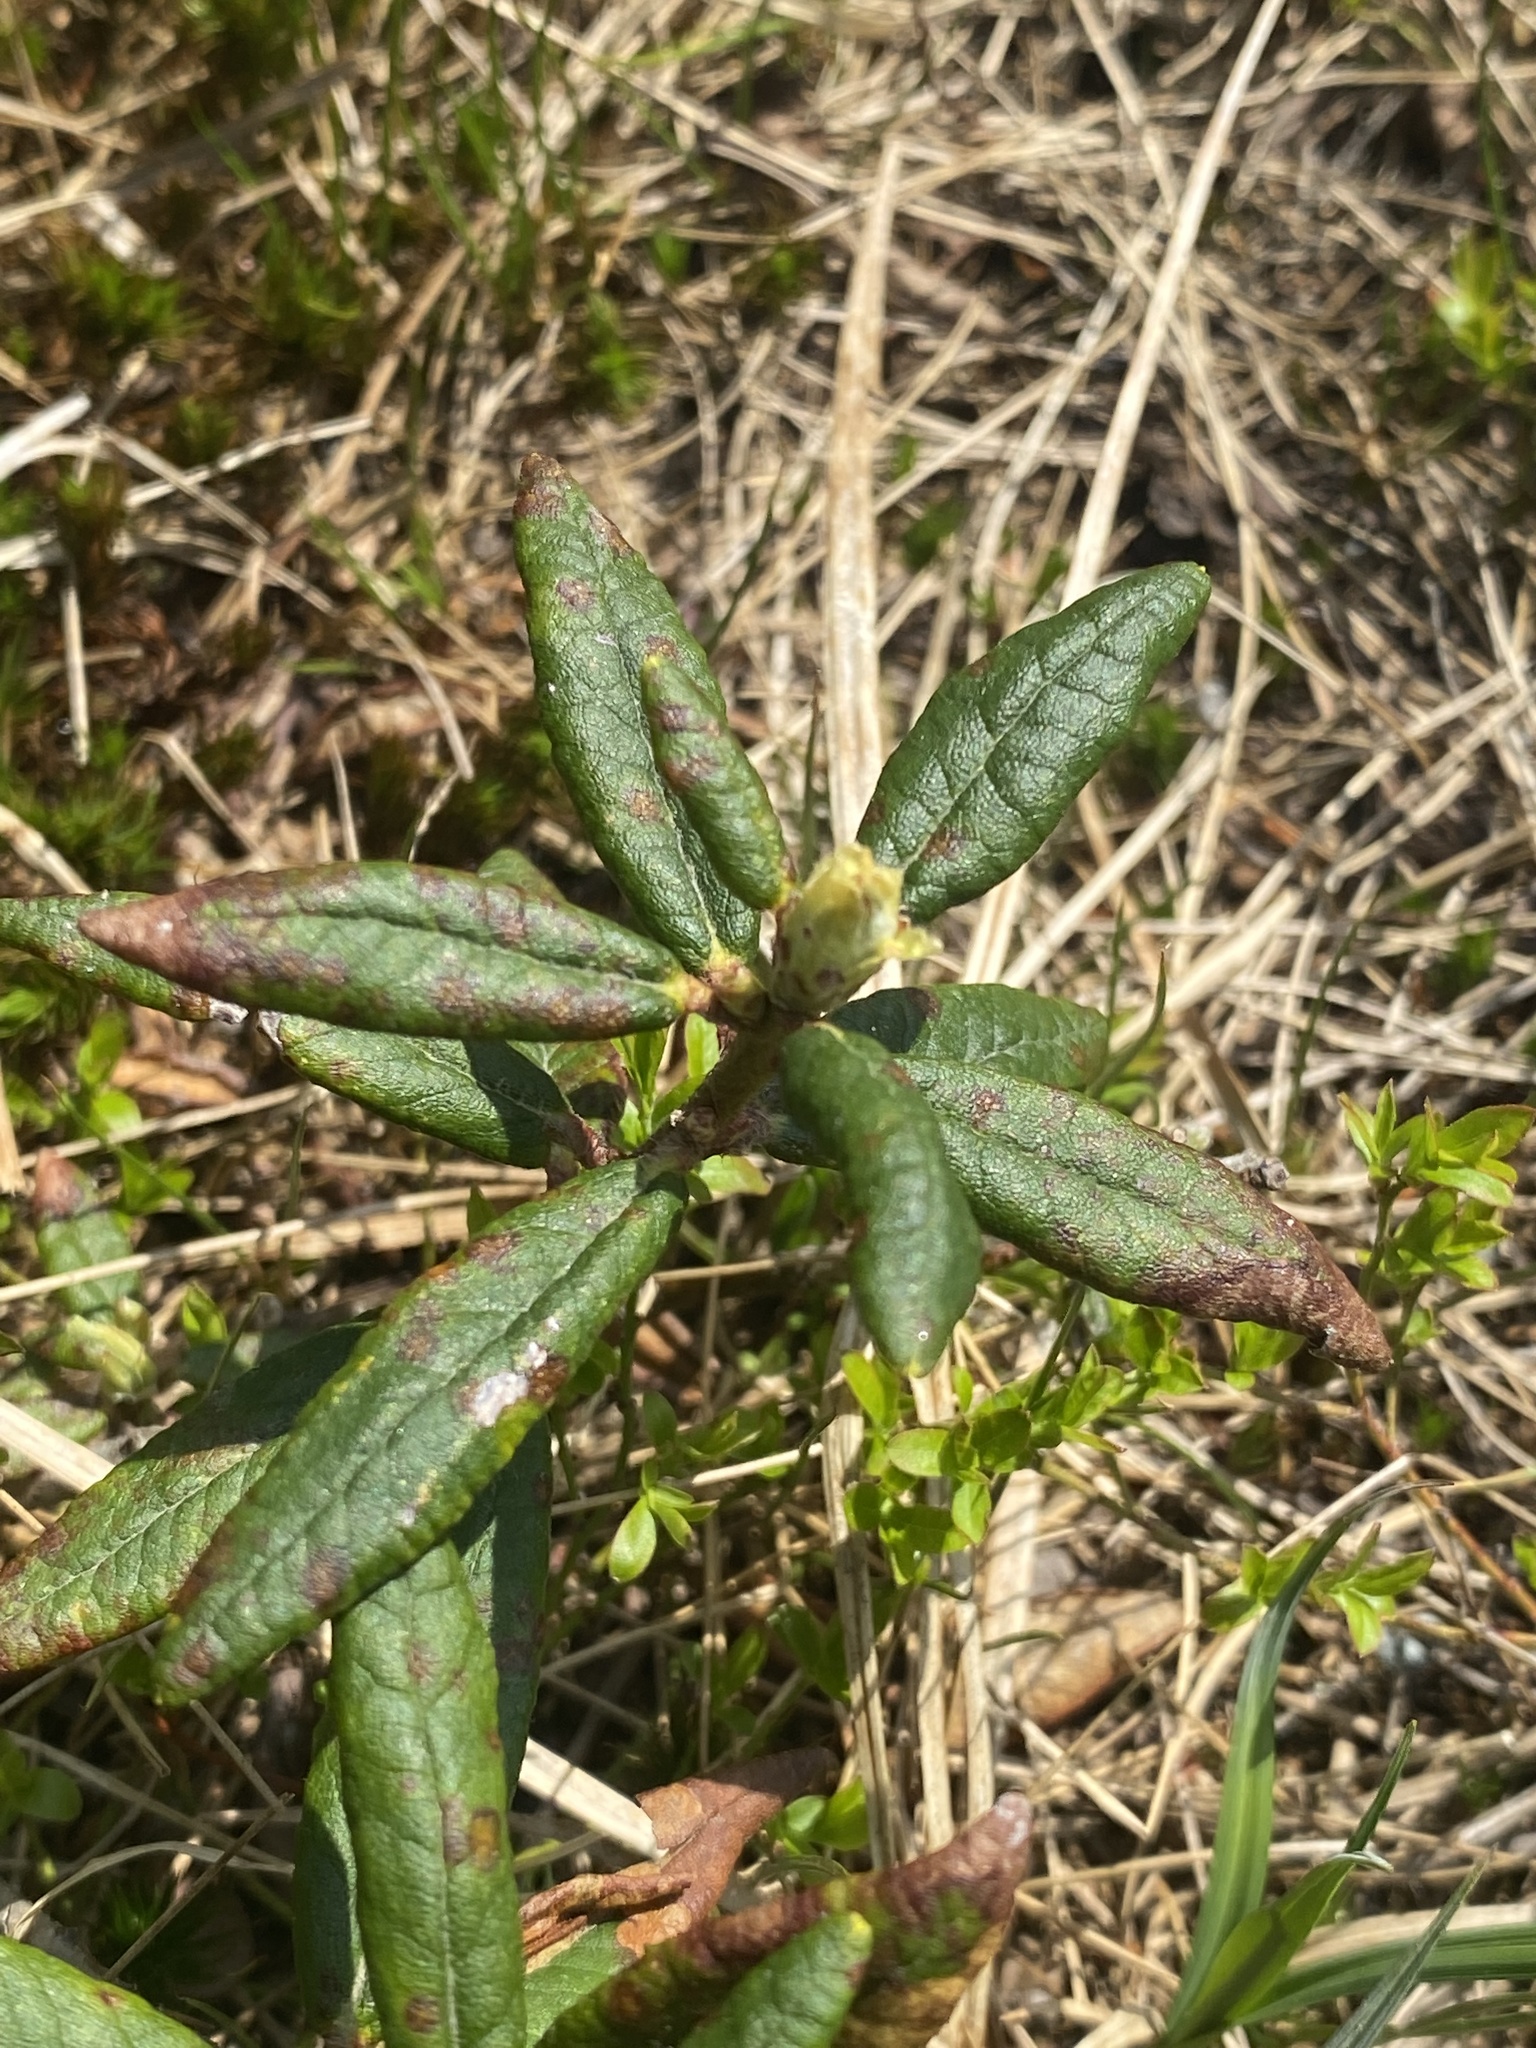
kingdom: Plantae
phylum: Tracheophyta
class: Magnoliopsida
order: Ericales
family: Ericaceae
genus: Rhododendron
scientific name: Rhododendron groenlandicum
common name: Bog labrador tea
